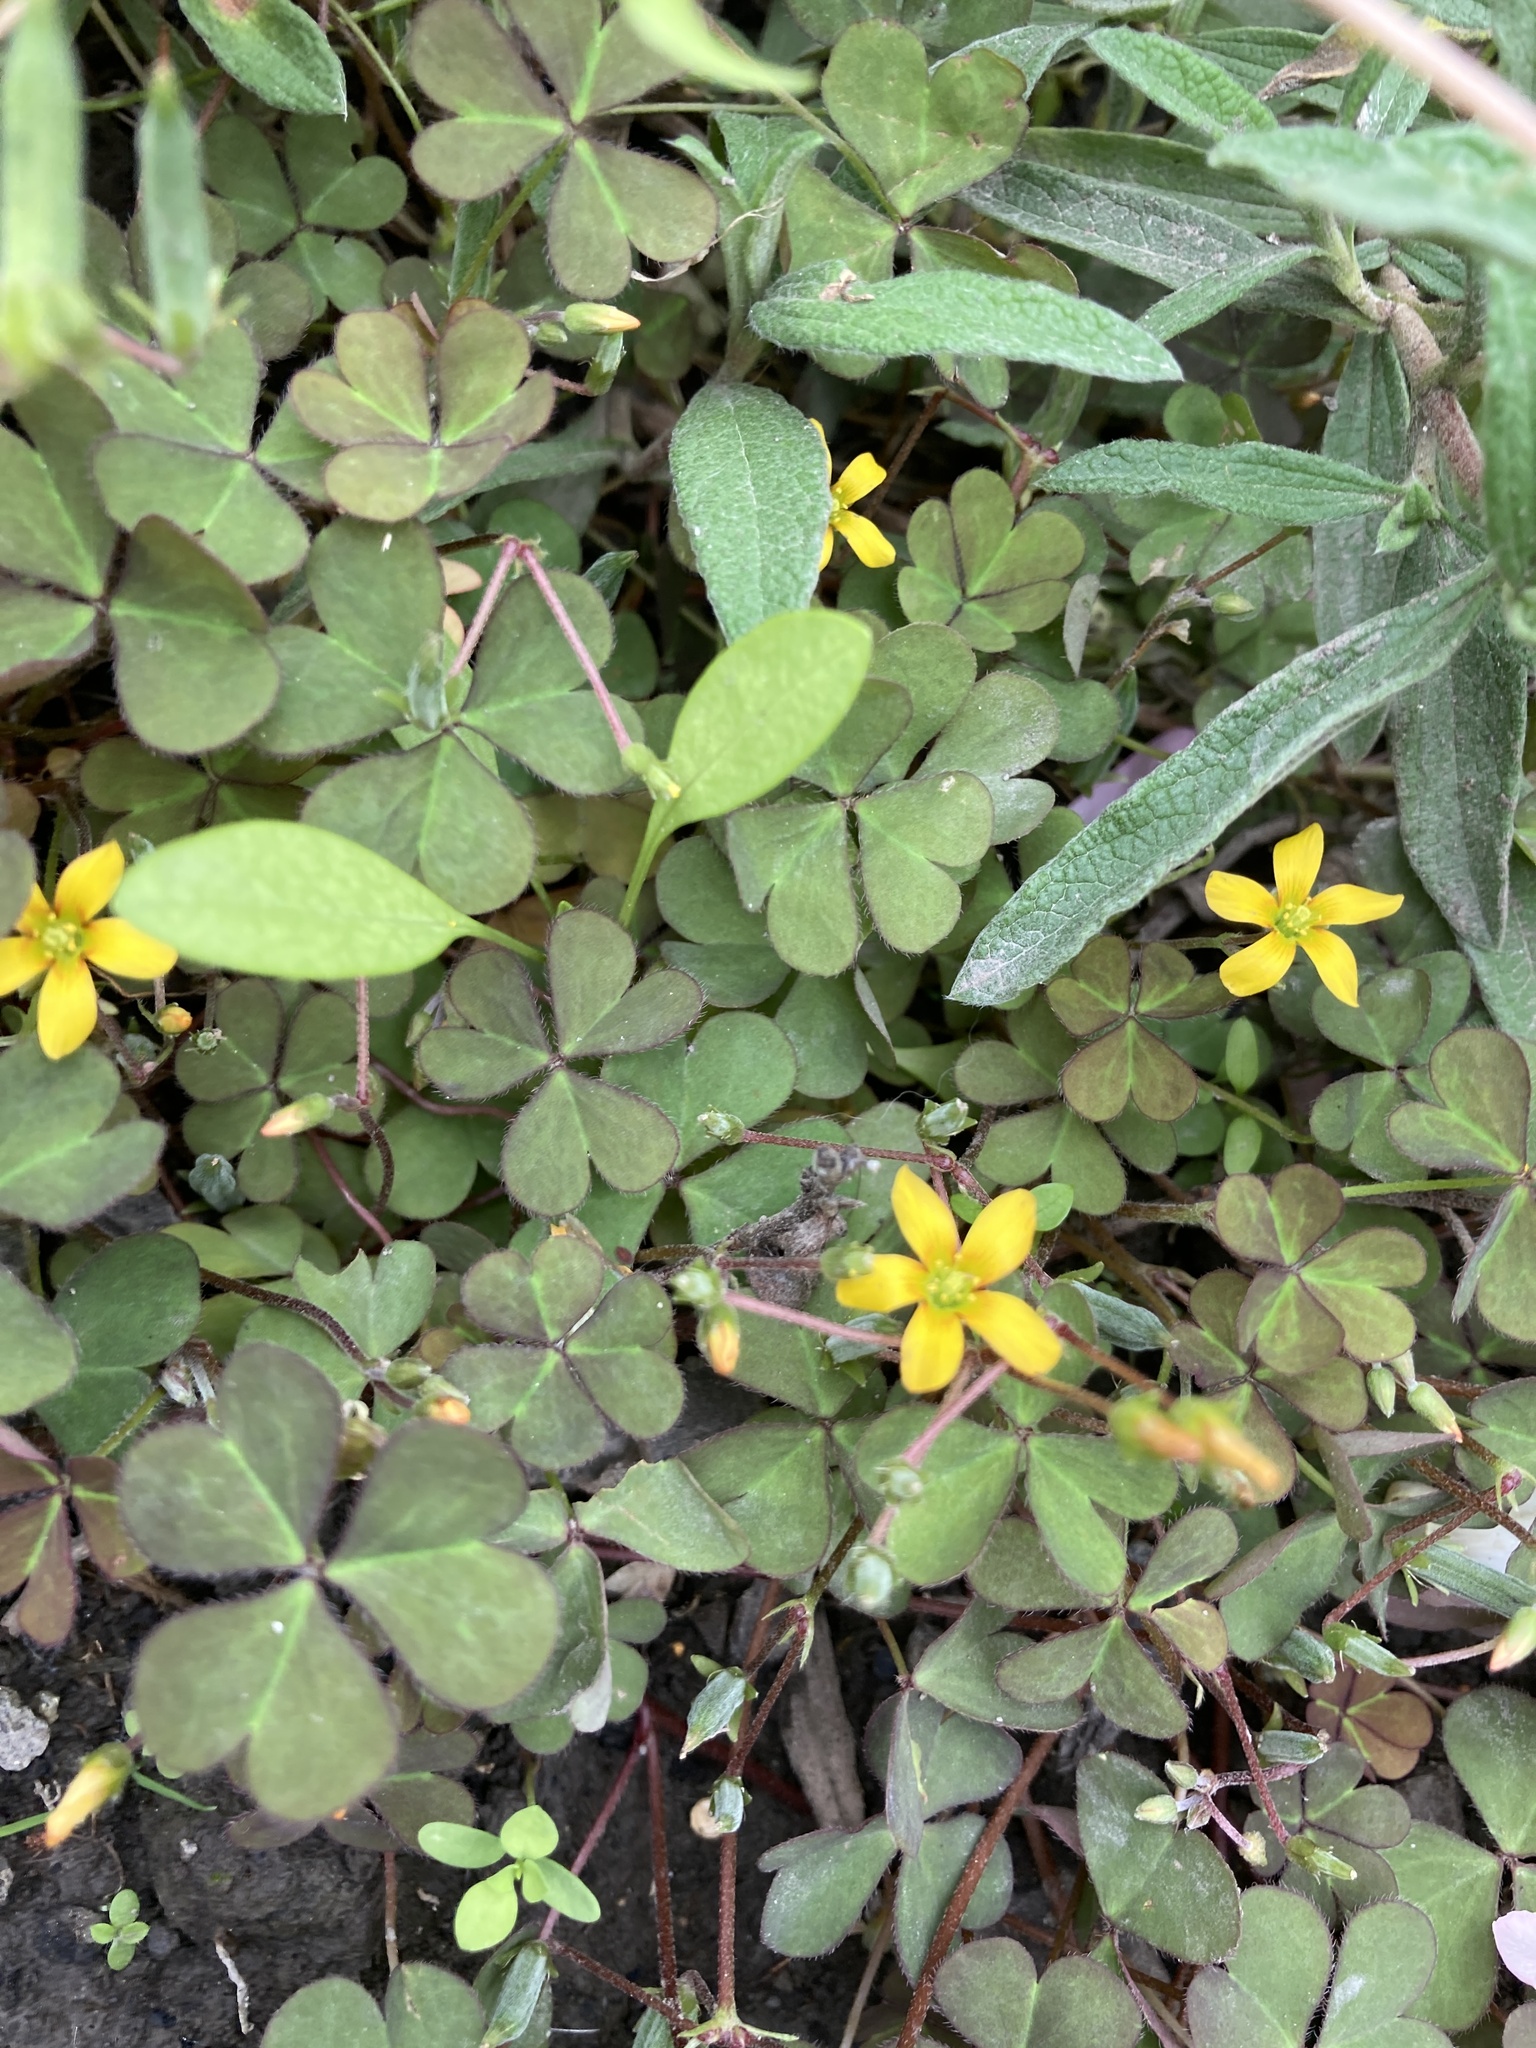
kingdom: Plantae
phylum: Tracheophyta
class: Magnoliopsida
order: Oxalidales
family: Oxalidaceae
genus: Oxalis
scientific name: Oxalis corniculata
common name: Procumbent yellow-sorrel
